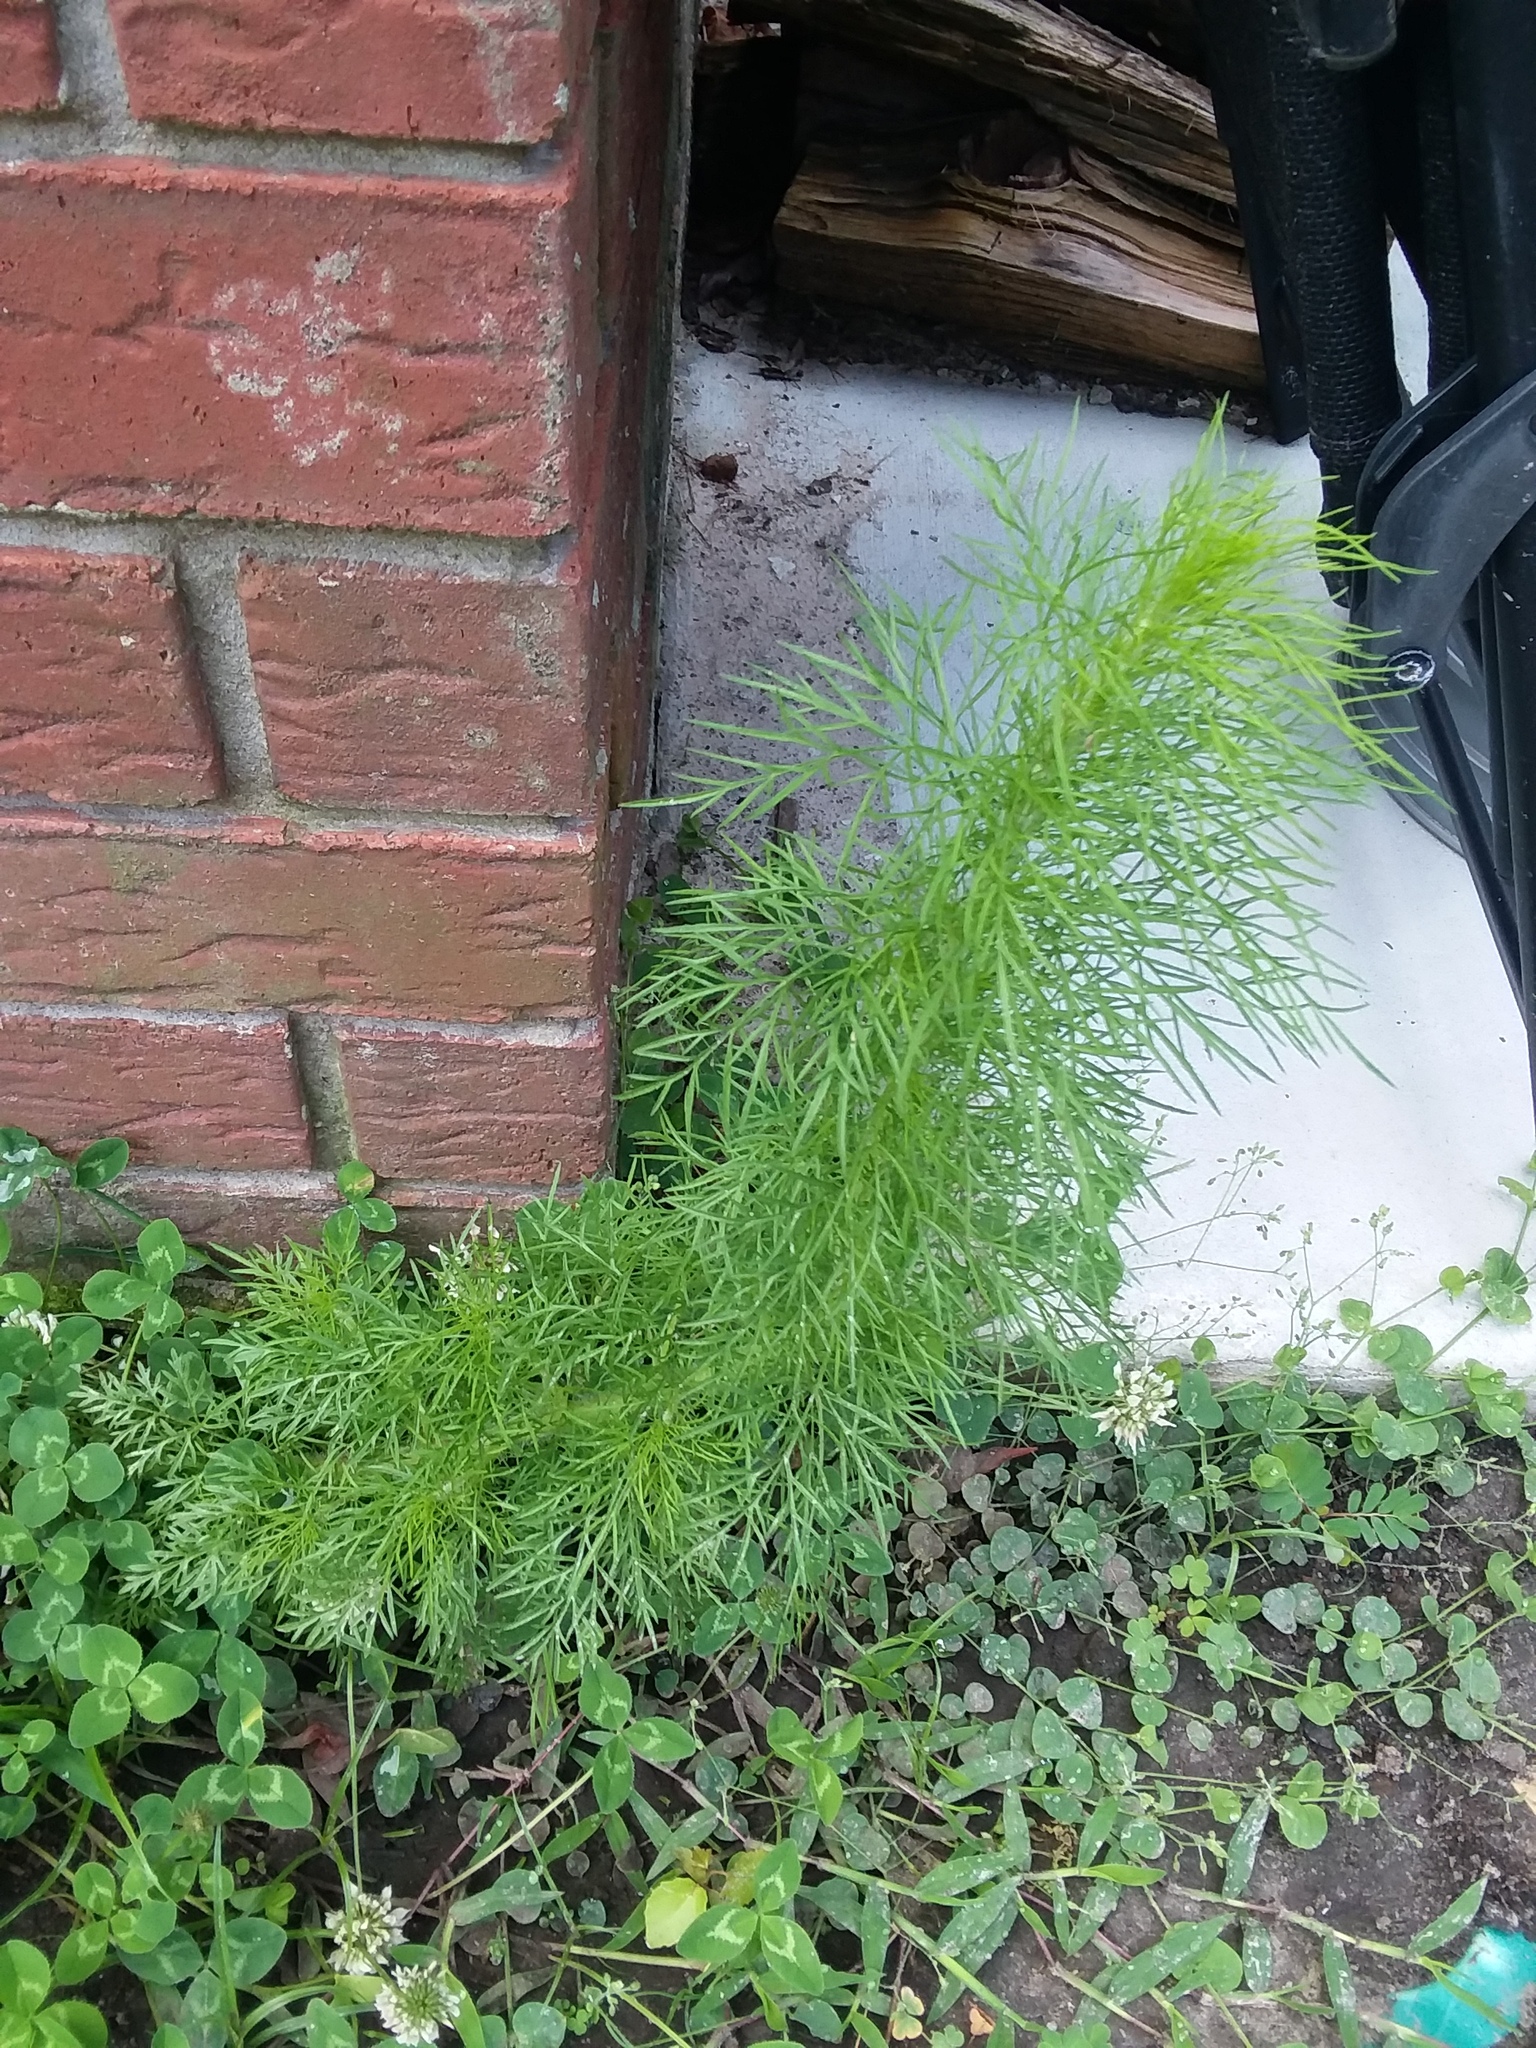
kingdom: Plantae
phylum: Tracheophyta
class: Magnoliopsida
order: Asterales
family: Asteraceae
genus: Eupatorium
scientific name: Eupatorium capillifolium
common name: Dog-fennel
